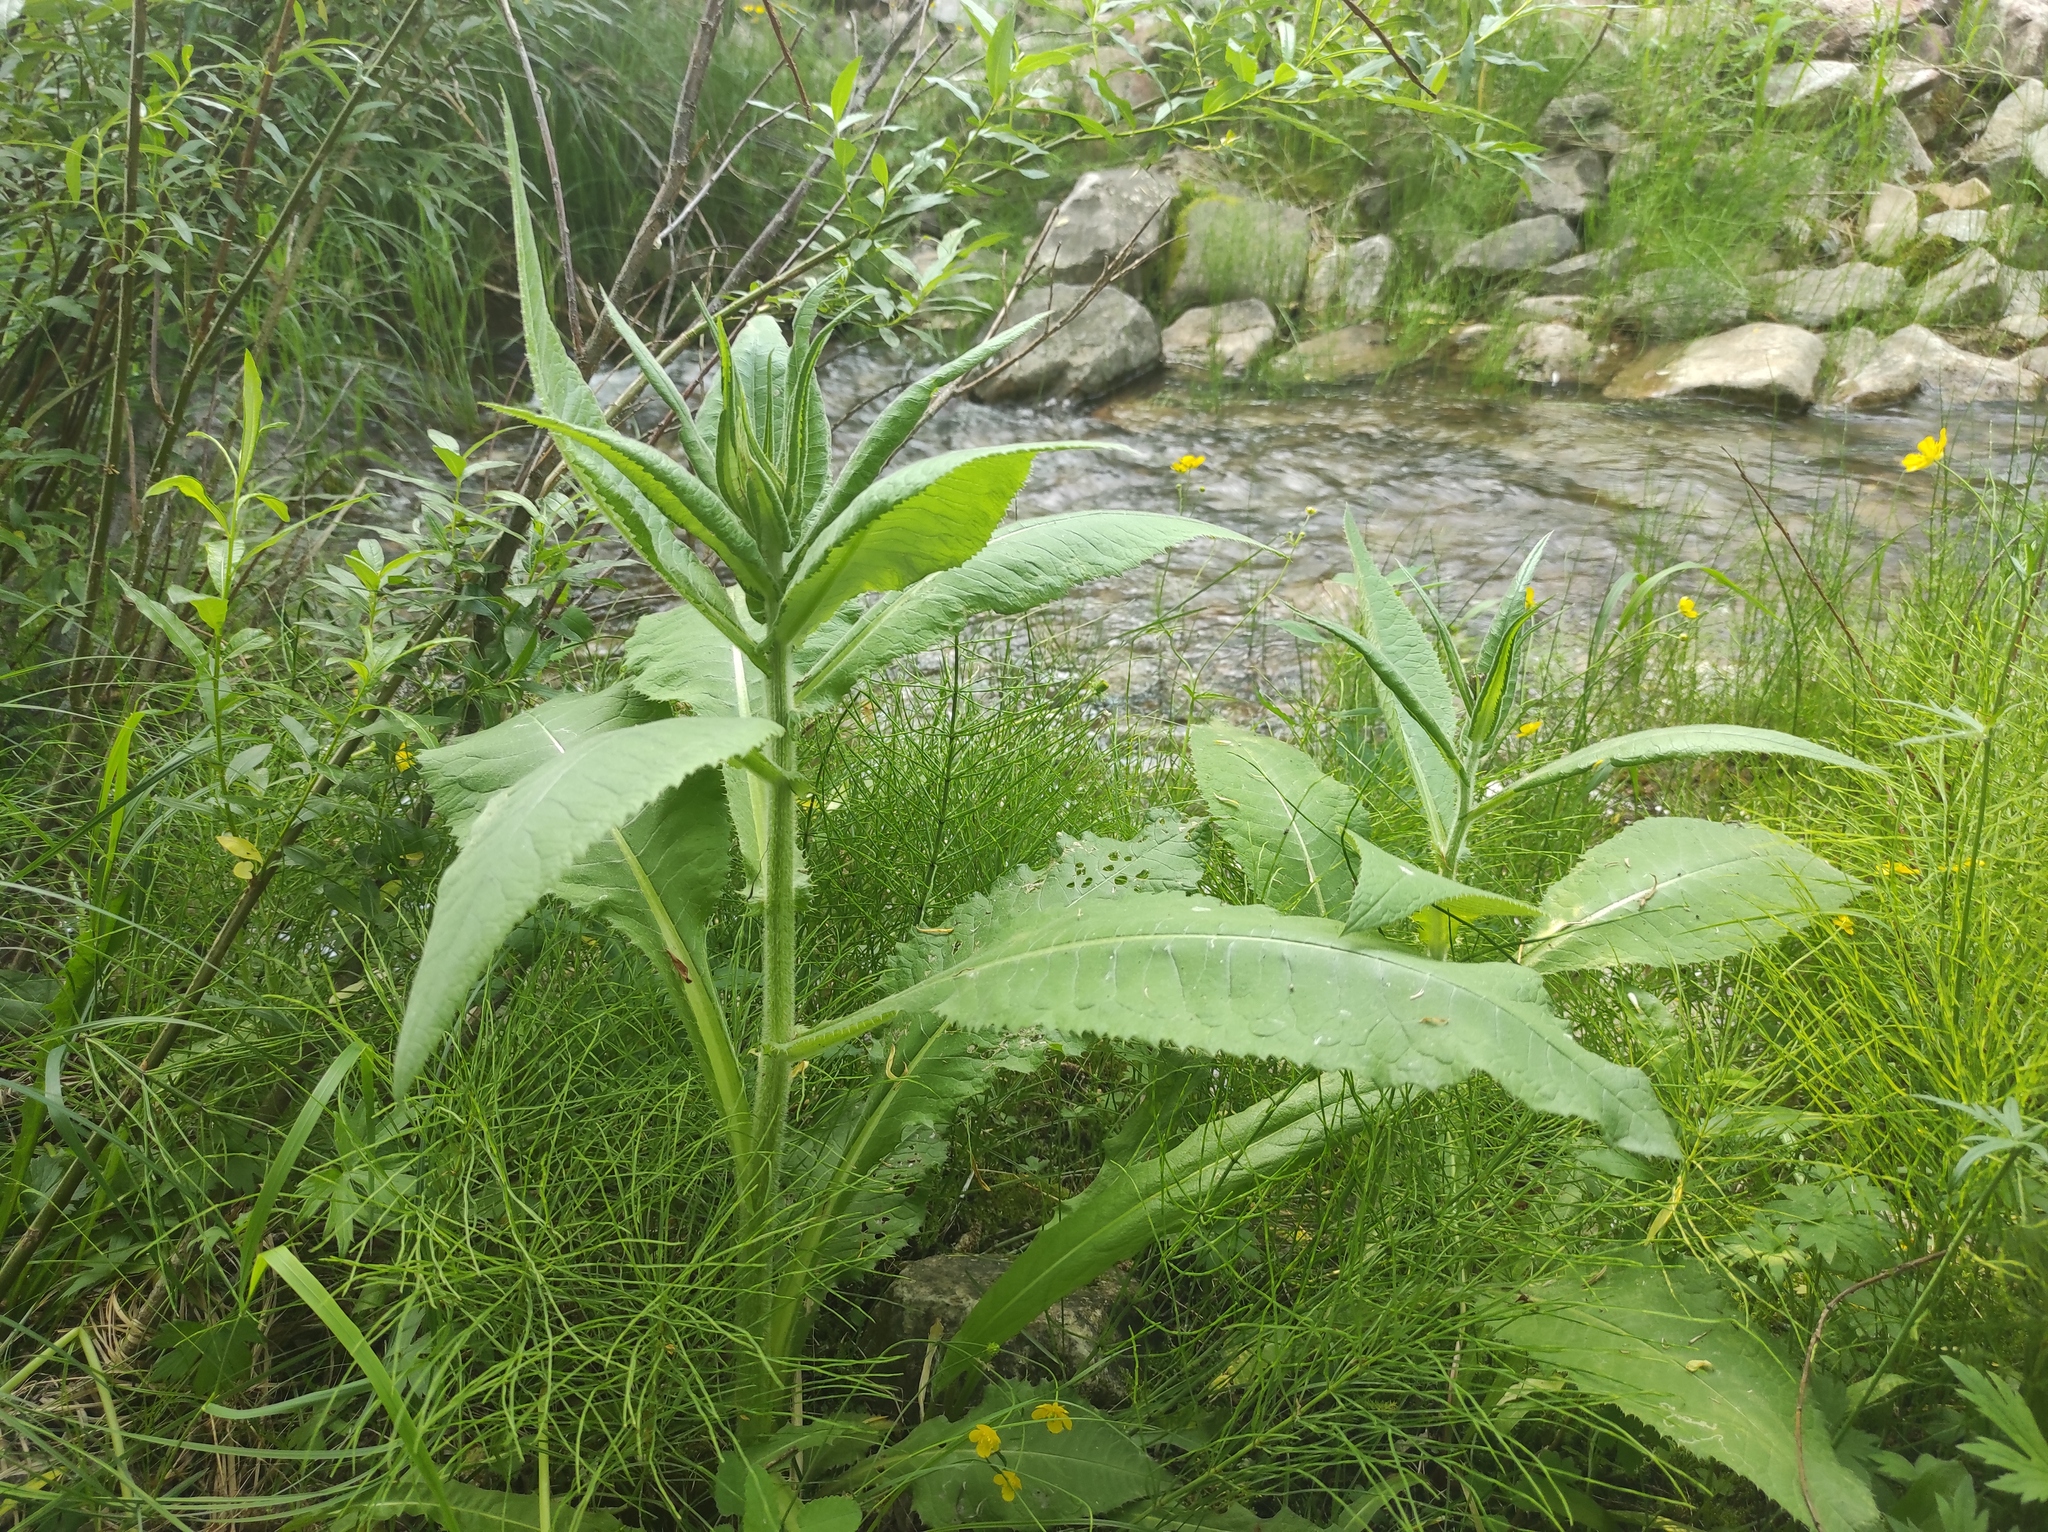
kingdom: Plantae
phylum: Tracheophyta
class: Magnoliopsida
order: Asterales
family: Asteraceae
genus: Cirsium
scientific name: Cirsium helenioides
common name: Melancholy thistle
